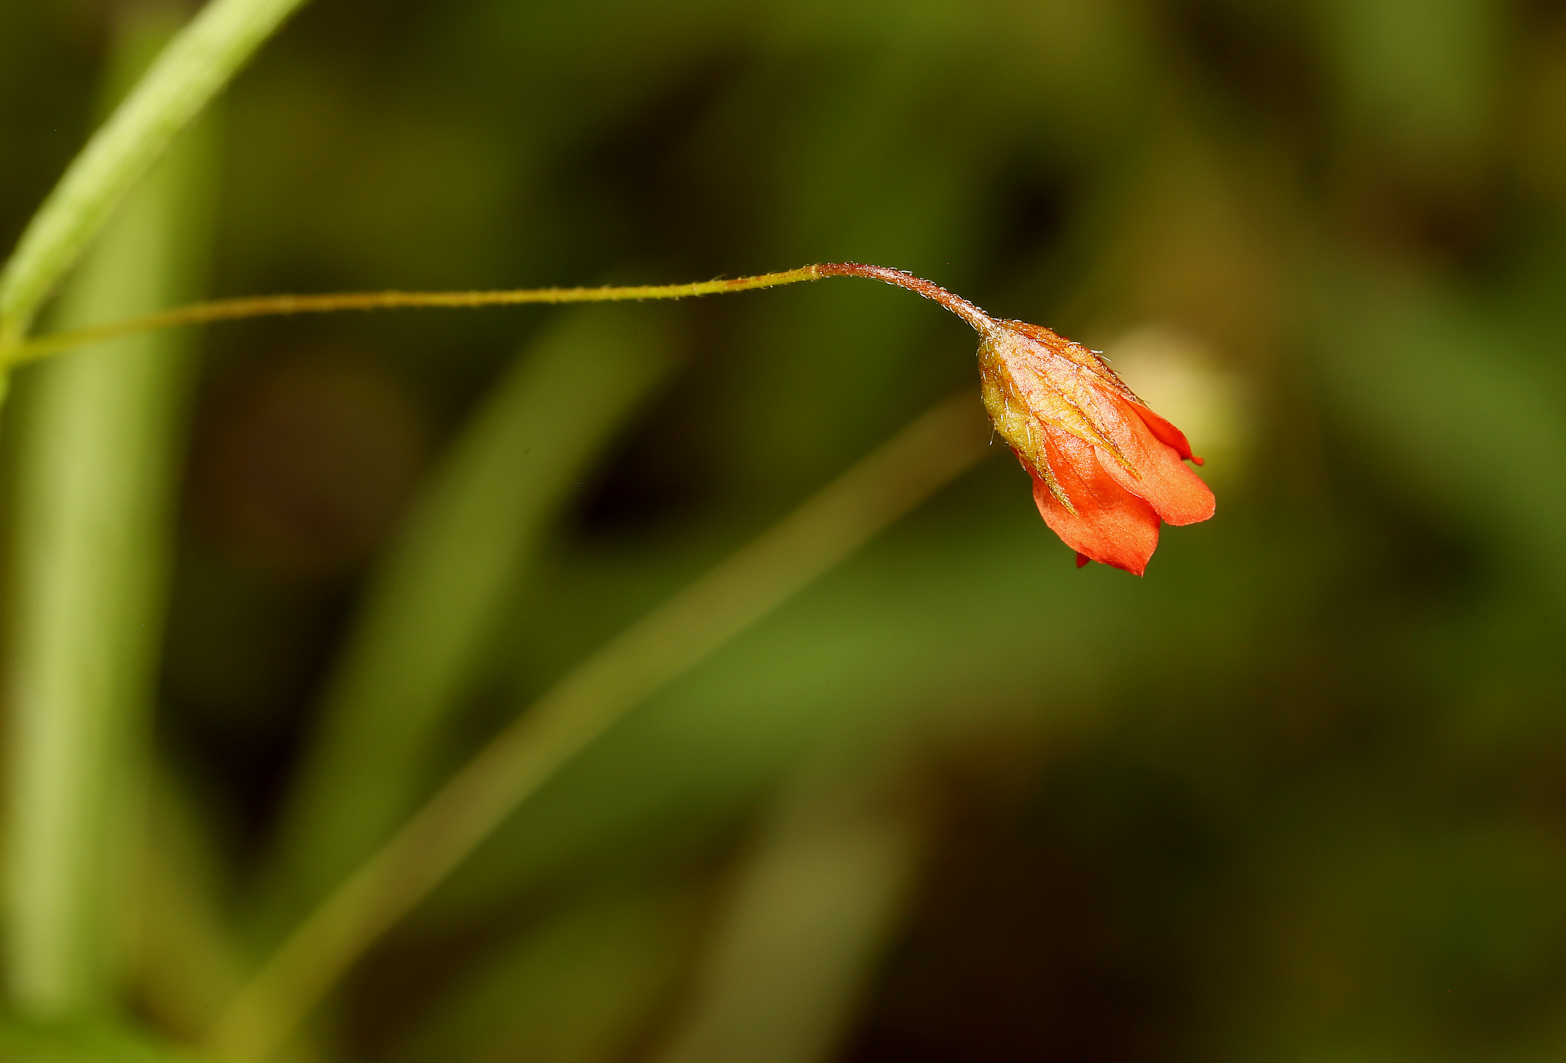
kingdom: Plantae
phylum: Tracheophyta
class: Magnoliopsida
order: Malvales
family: Malvaceae
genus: Hermannia
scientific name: Hermannia modesta
